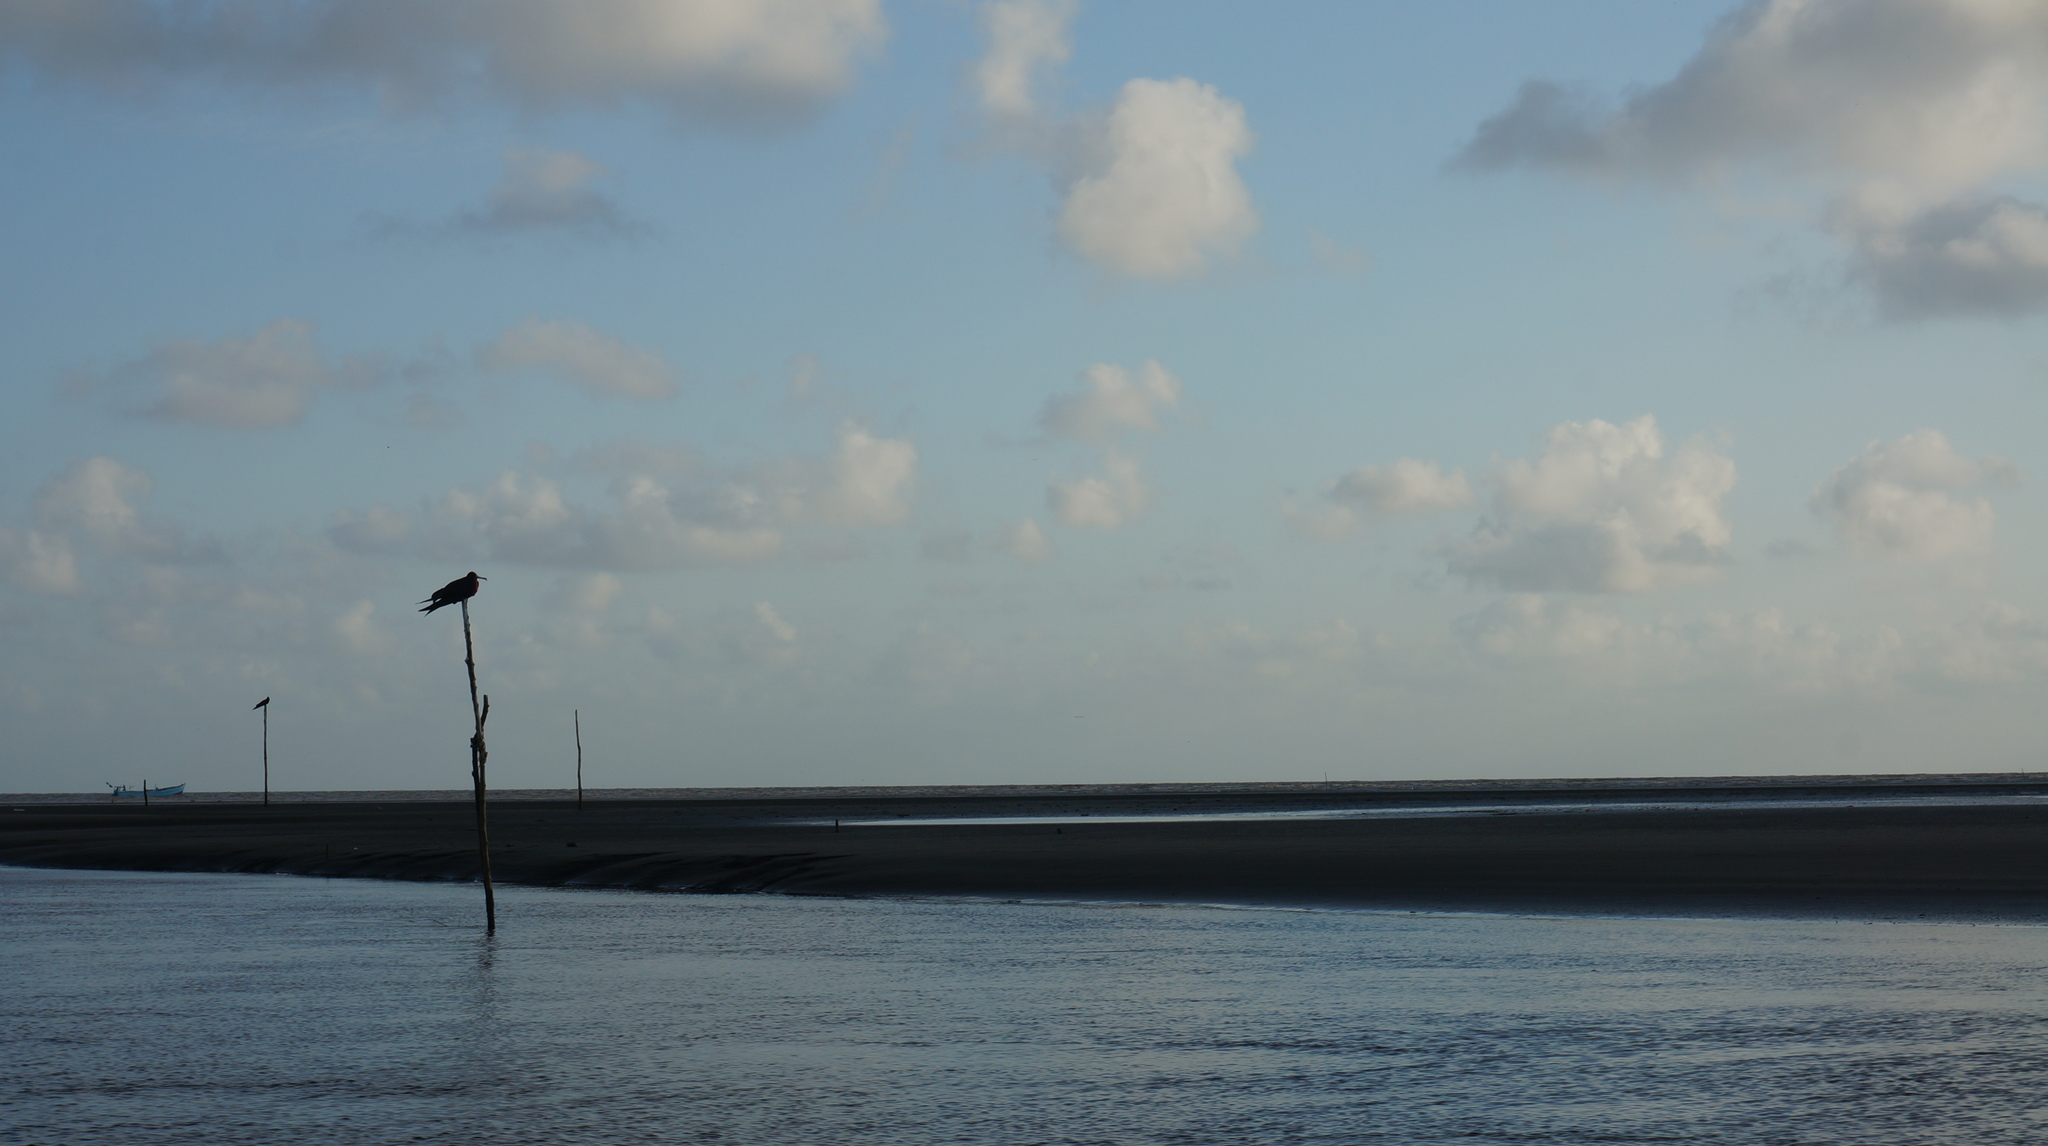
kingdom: Animalia
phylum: Chordata
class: Aves
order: Suliformes
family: Fregatidae
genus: Fregata
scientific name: Fregata magnificens
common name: Magnificent frigatebird
